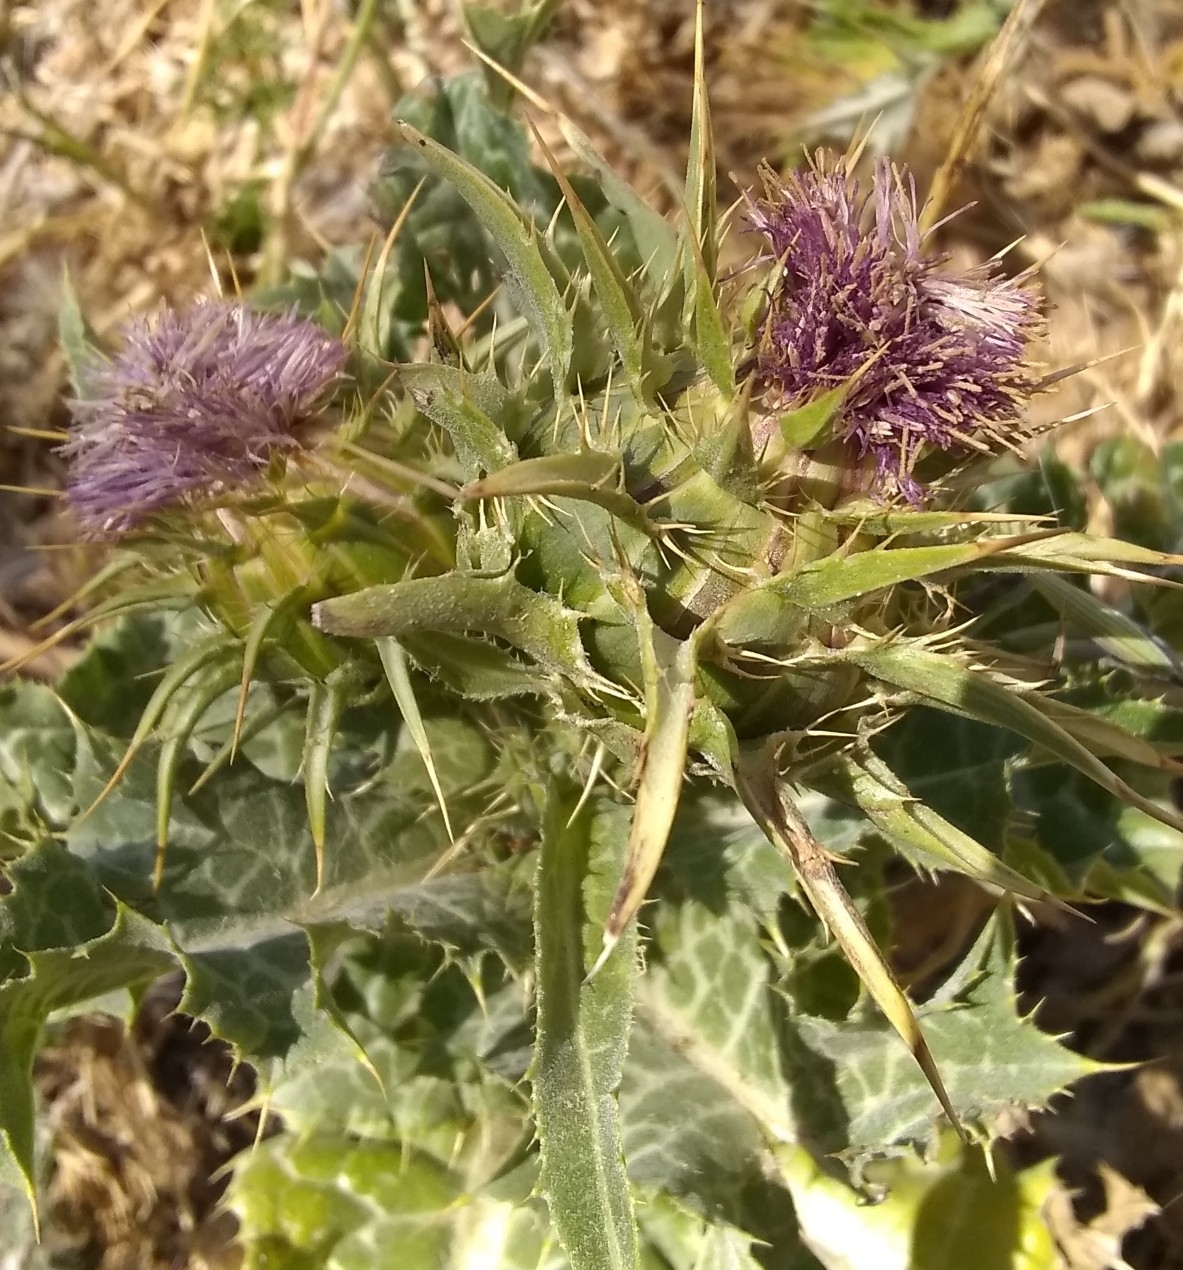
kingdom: Plantae
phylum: Tracheophyta
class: Magnoliopsida
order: Asterales
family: Asteraceae
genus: Silybum
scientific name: Silybum marianum
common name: Milk thistle
